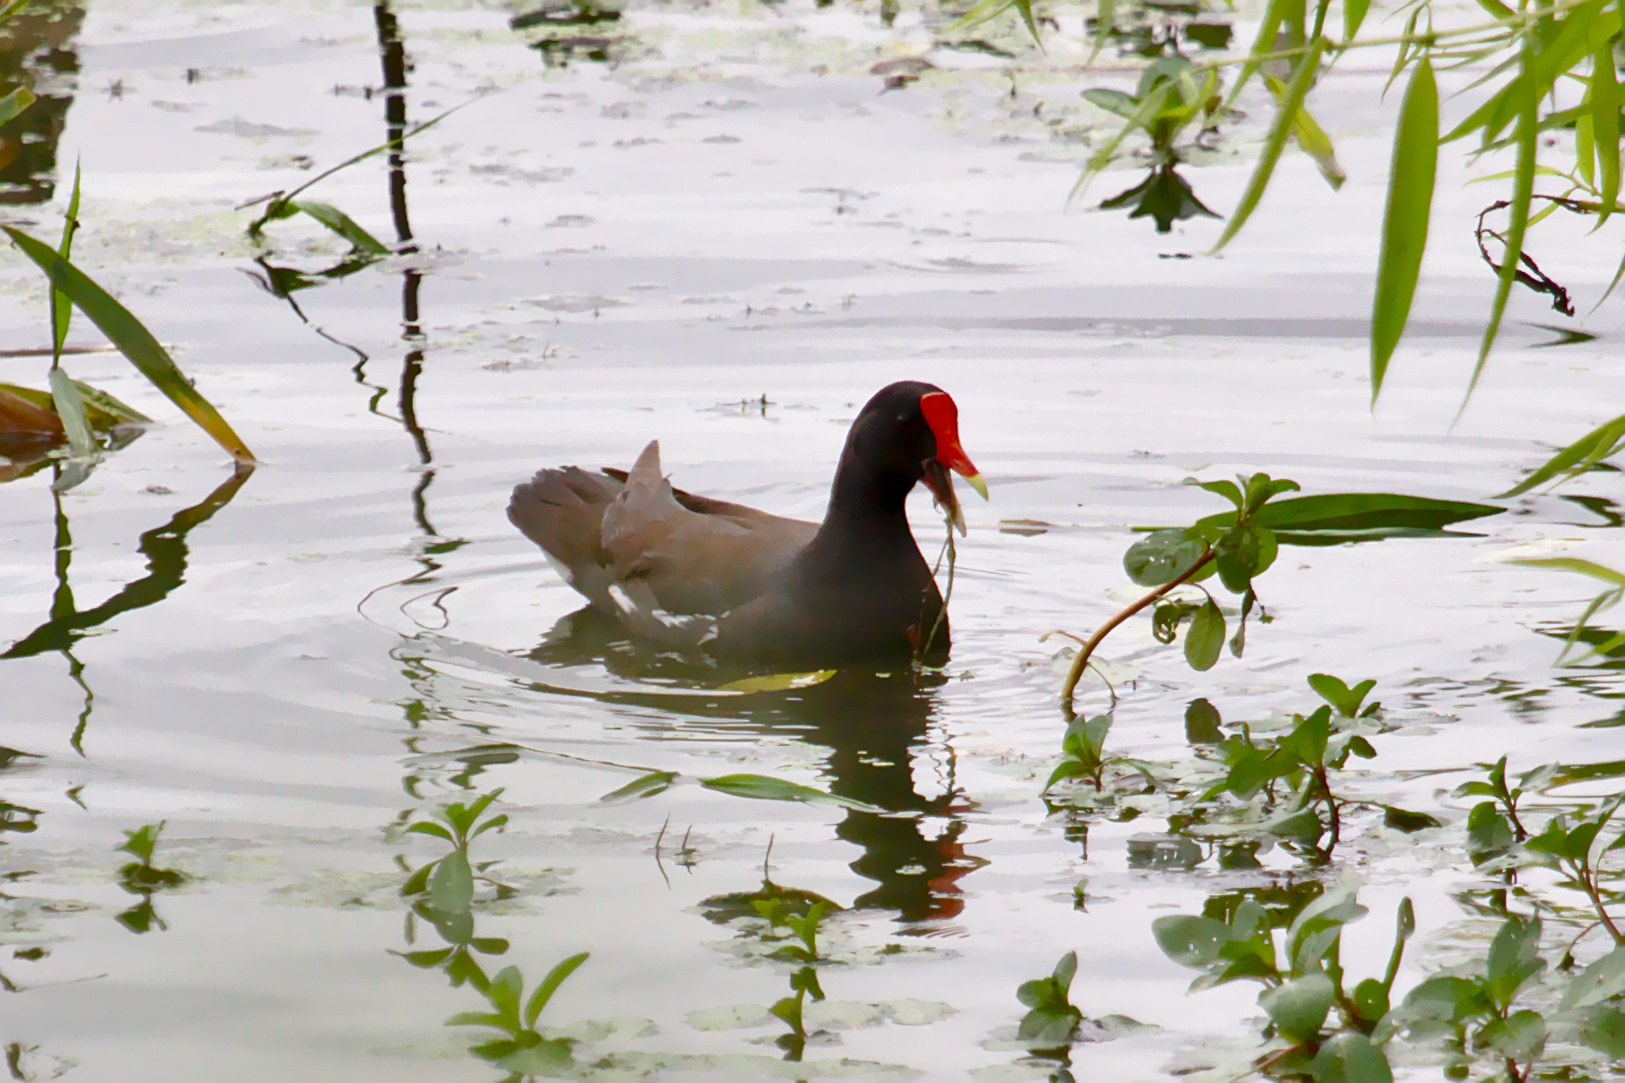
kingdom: Animalia
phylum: Chordata
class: Aves
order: Gruiformes
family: Rallidae
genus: Gallinula
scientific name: Gallinula chloropus
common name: Common moorhen
